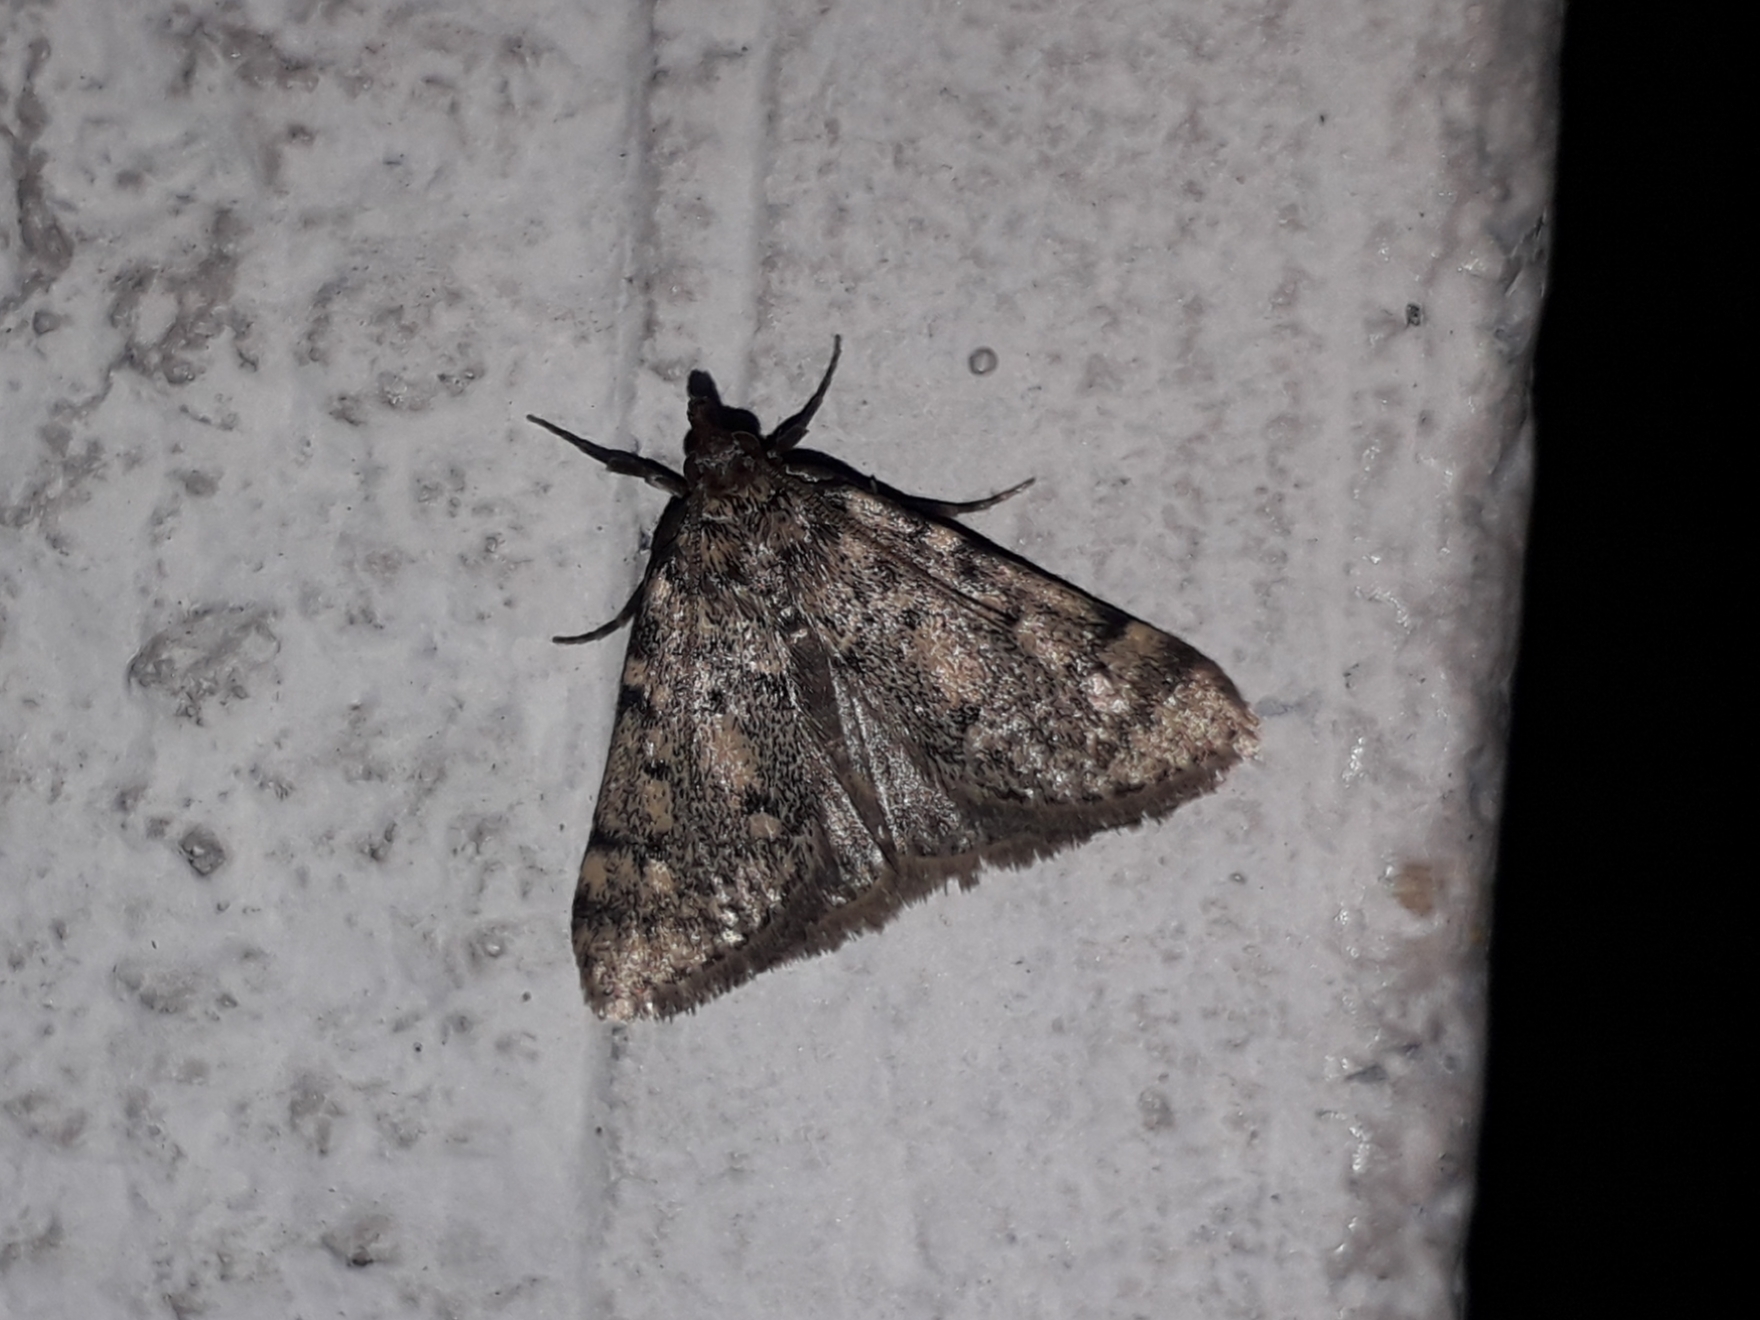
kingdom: Animalia
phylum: Arthropoda
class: Insecta
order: Lepidoptera
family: Pyralidae
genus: Aglossa
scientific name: Aglossa pinguinalis
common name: Large tabby
